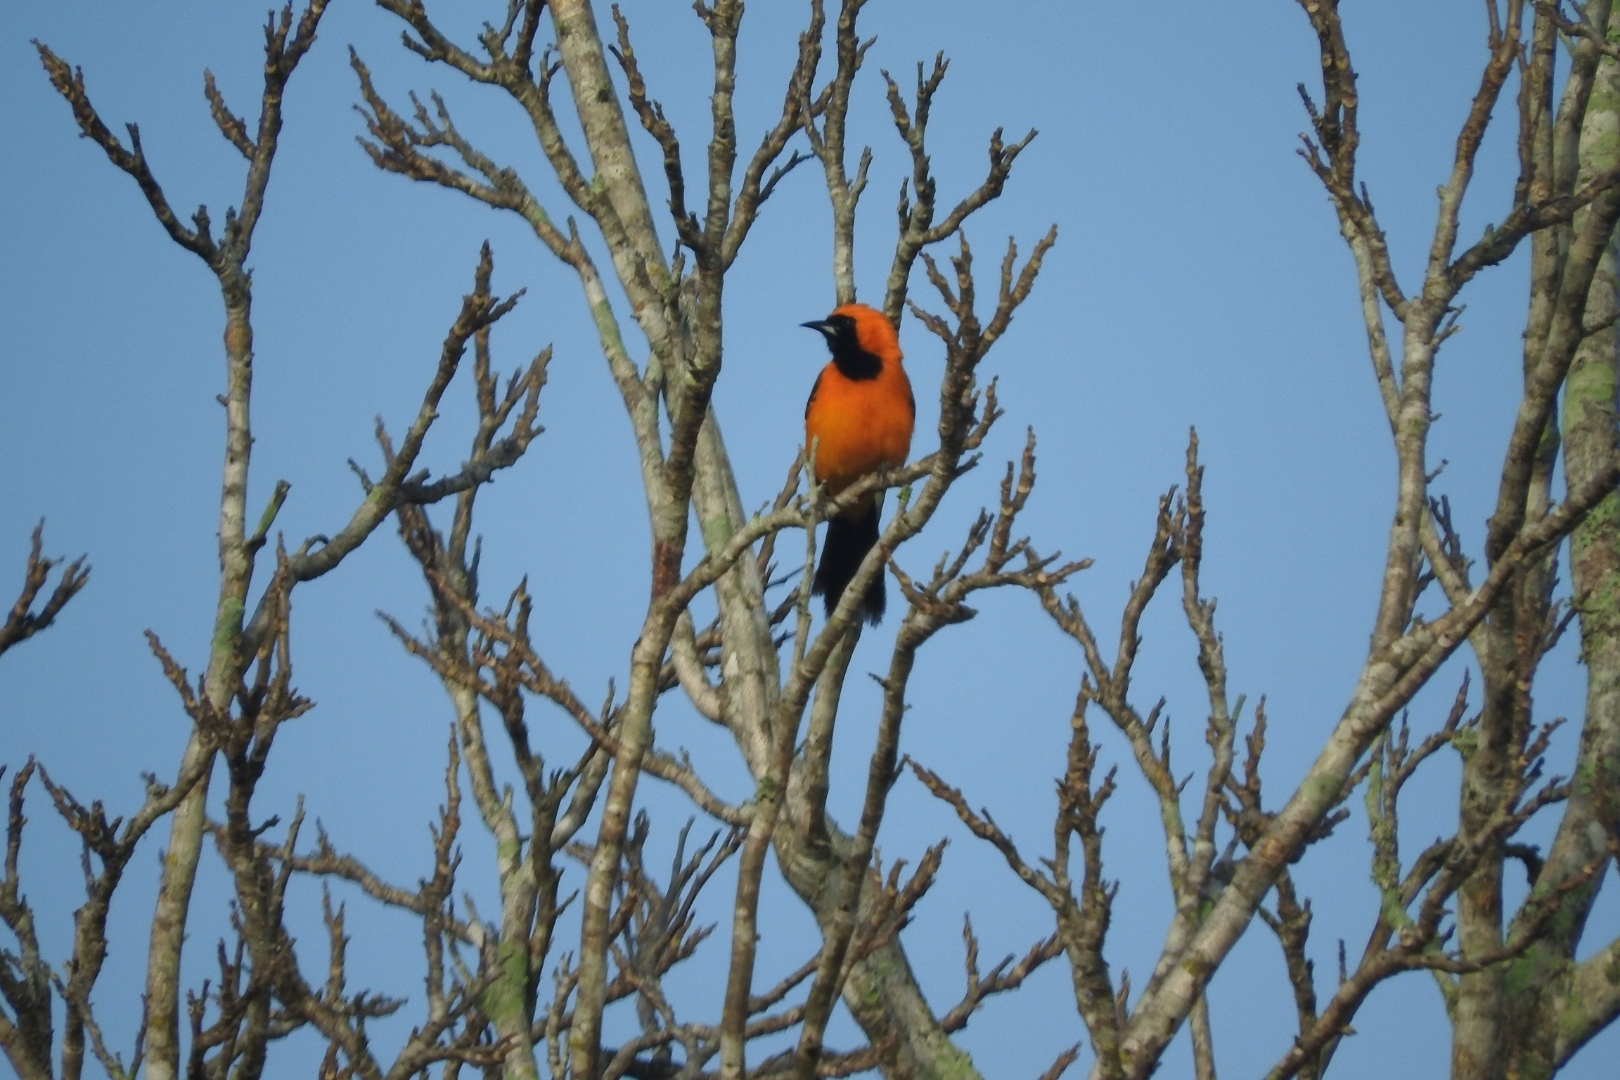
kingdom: Animalia
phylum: Chordata
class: Aves
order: Passeriformes
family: Icteridae
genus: Icterus
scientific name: Icterus cucullatus
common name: Hooded oriole
